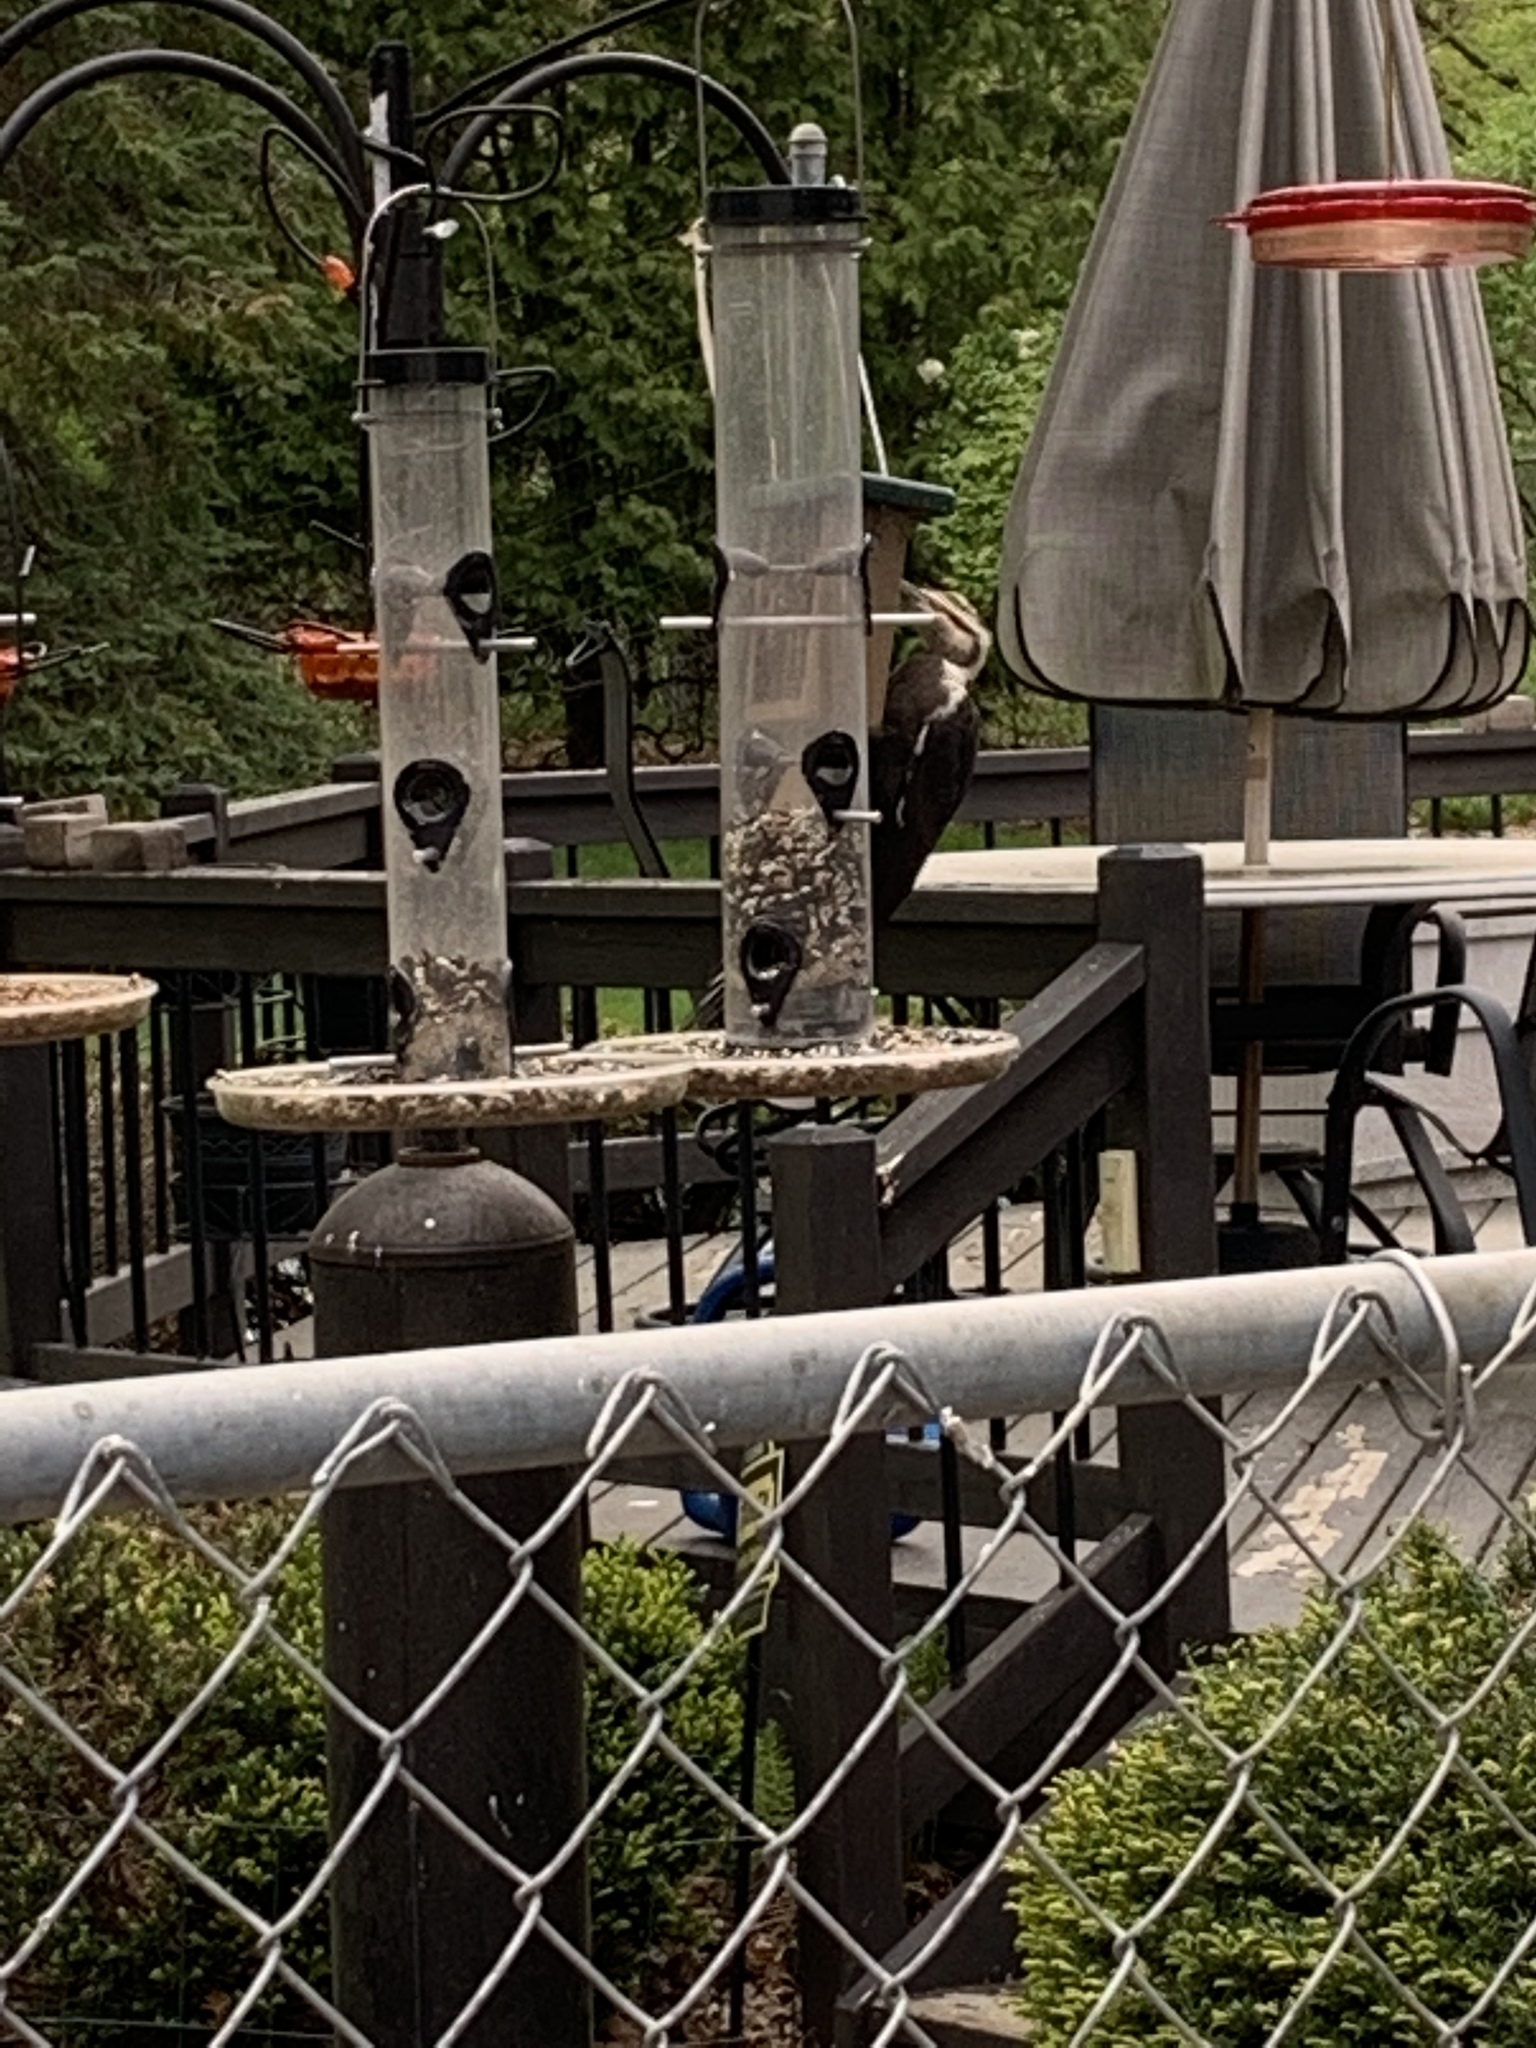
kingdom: Animalia
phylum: Chordata
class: Aves
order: Piciformes
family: Picidae
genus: Dryocopus
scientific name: Dryocopus pileatus
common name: Pileated woodpecker
